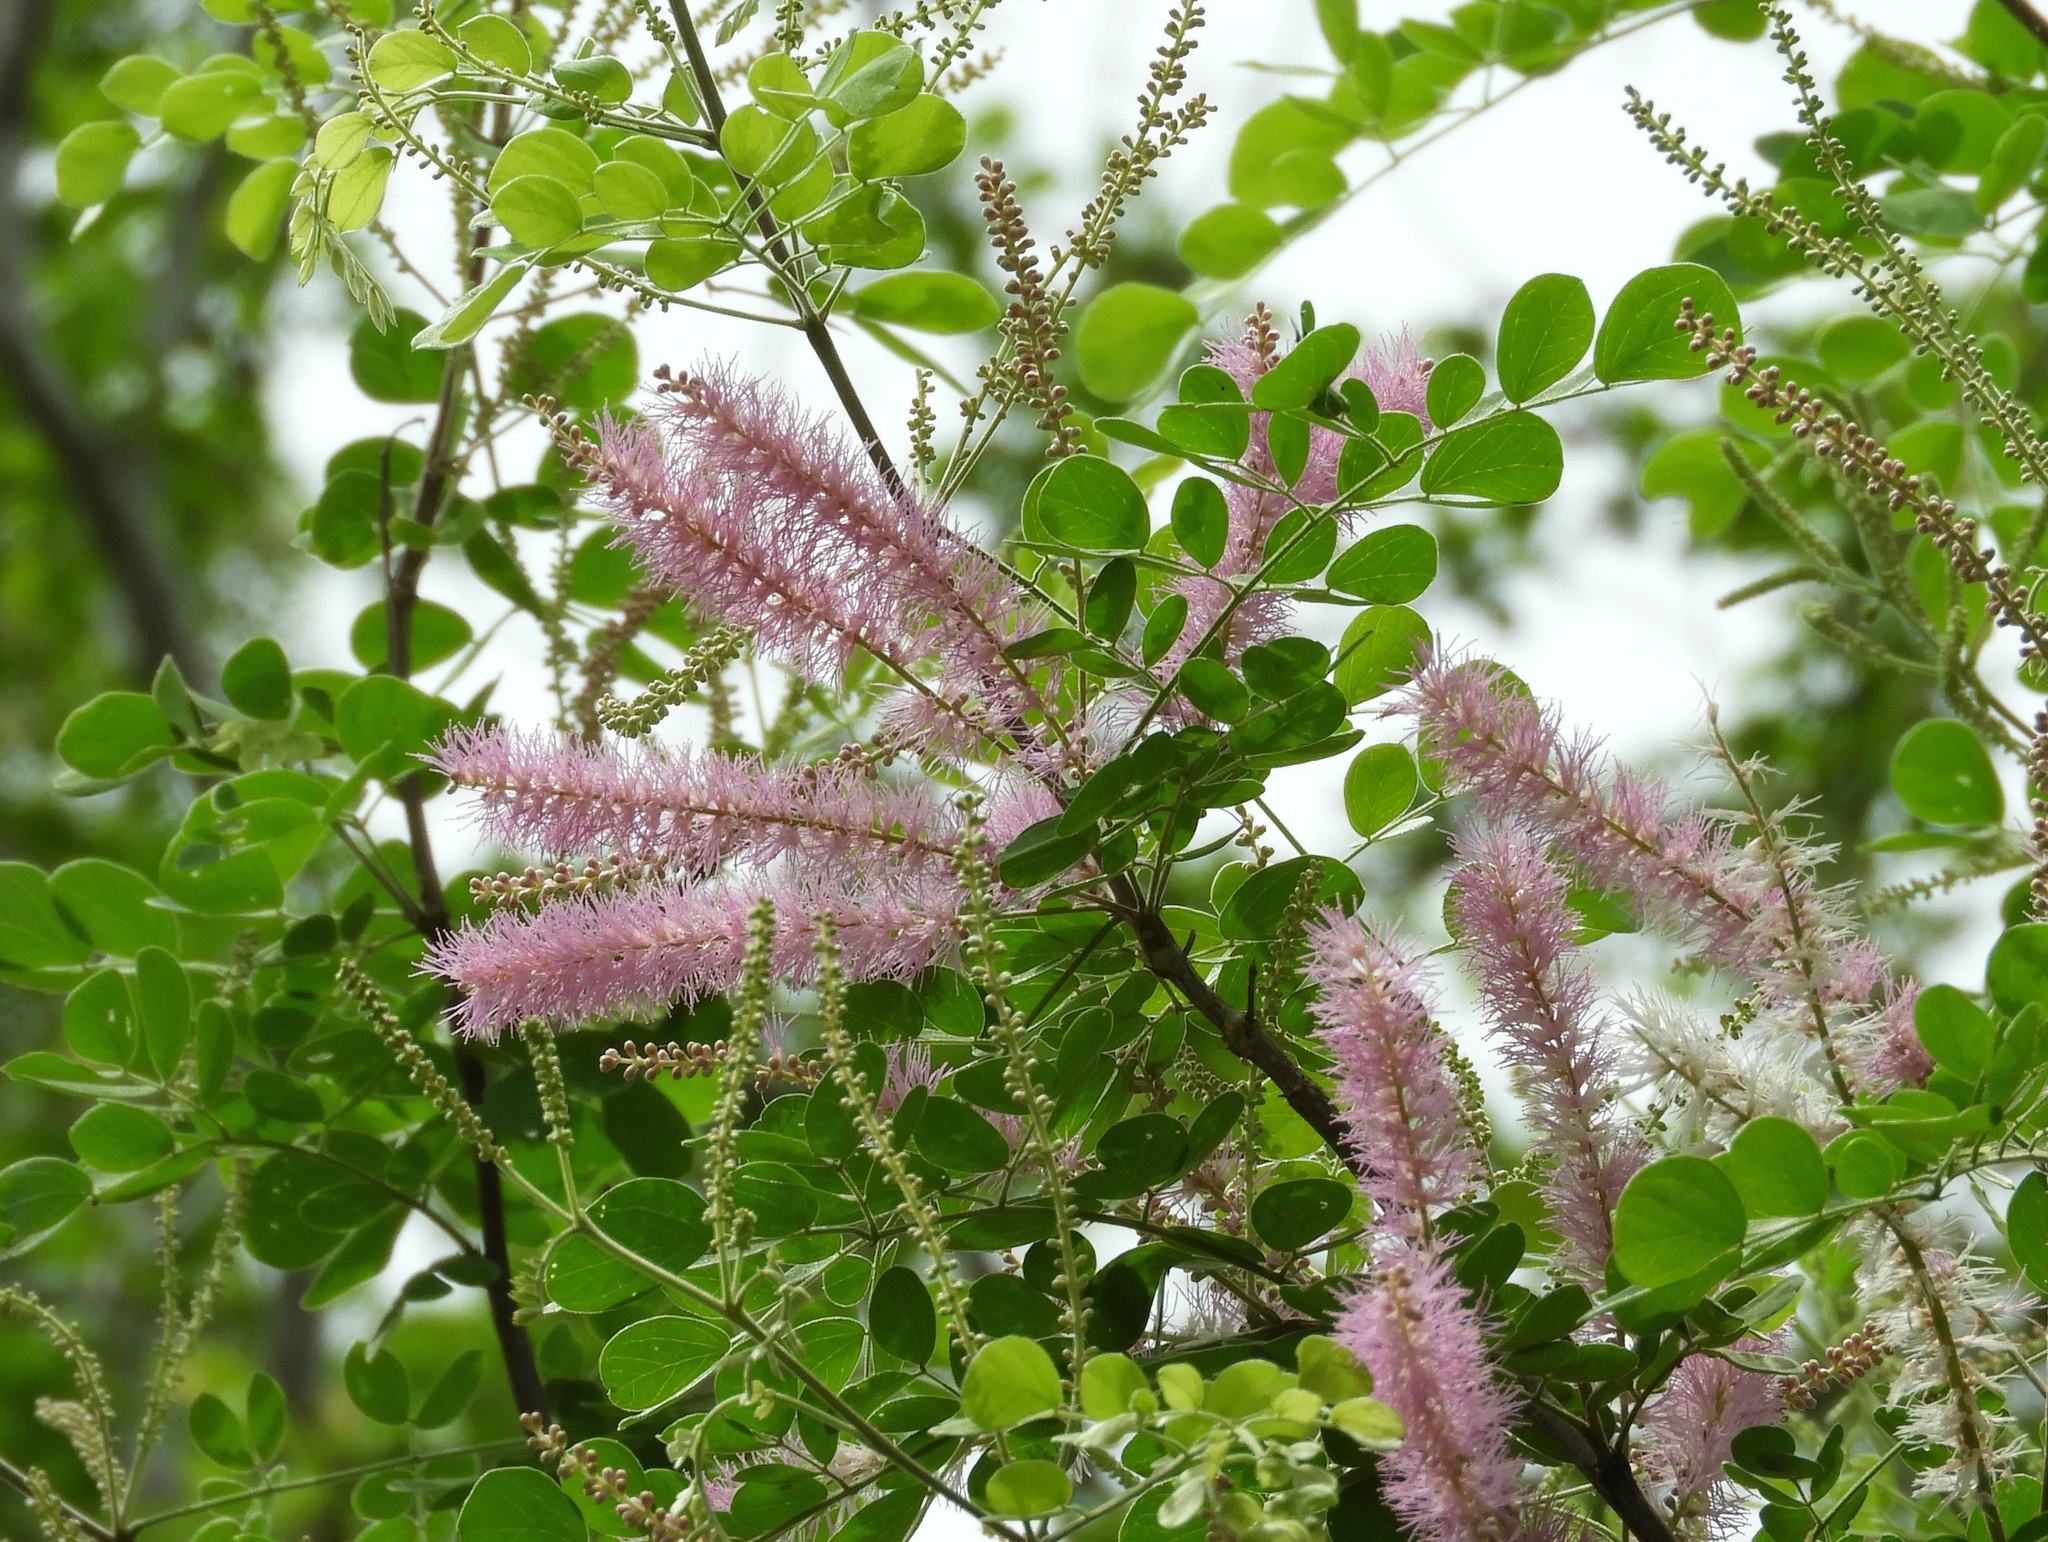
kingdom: Plantae
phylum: Tracheophyta
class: Magnoliopsida
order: Fabales
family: Fabaceae
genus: Mimosa
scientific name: Mimosa spirocarpa
